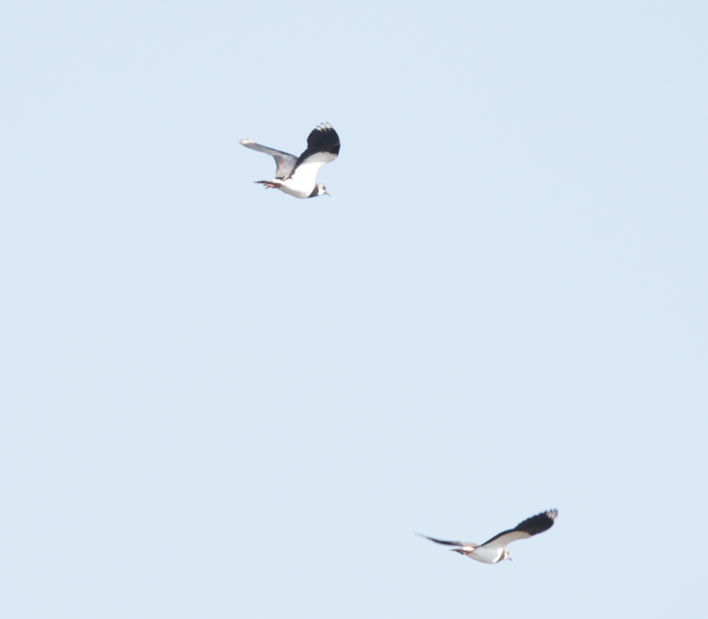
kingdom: Animalia
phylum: Chordata
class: Aves
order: Charadriiformes
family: Charadriidae
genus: Vanellus
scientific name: Vanellus vanellus
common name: Northern lapwing
